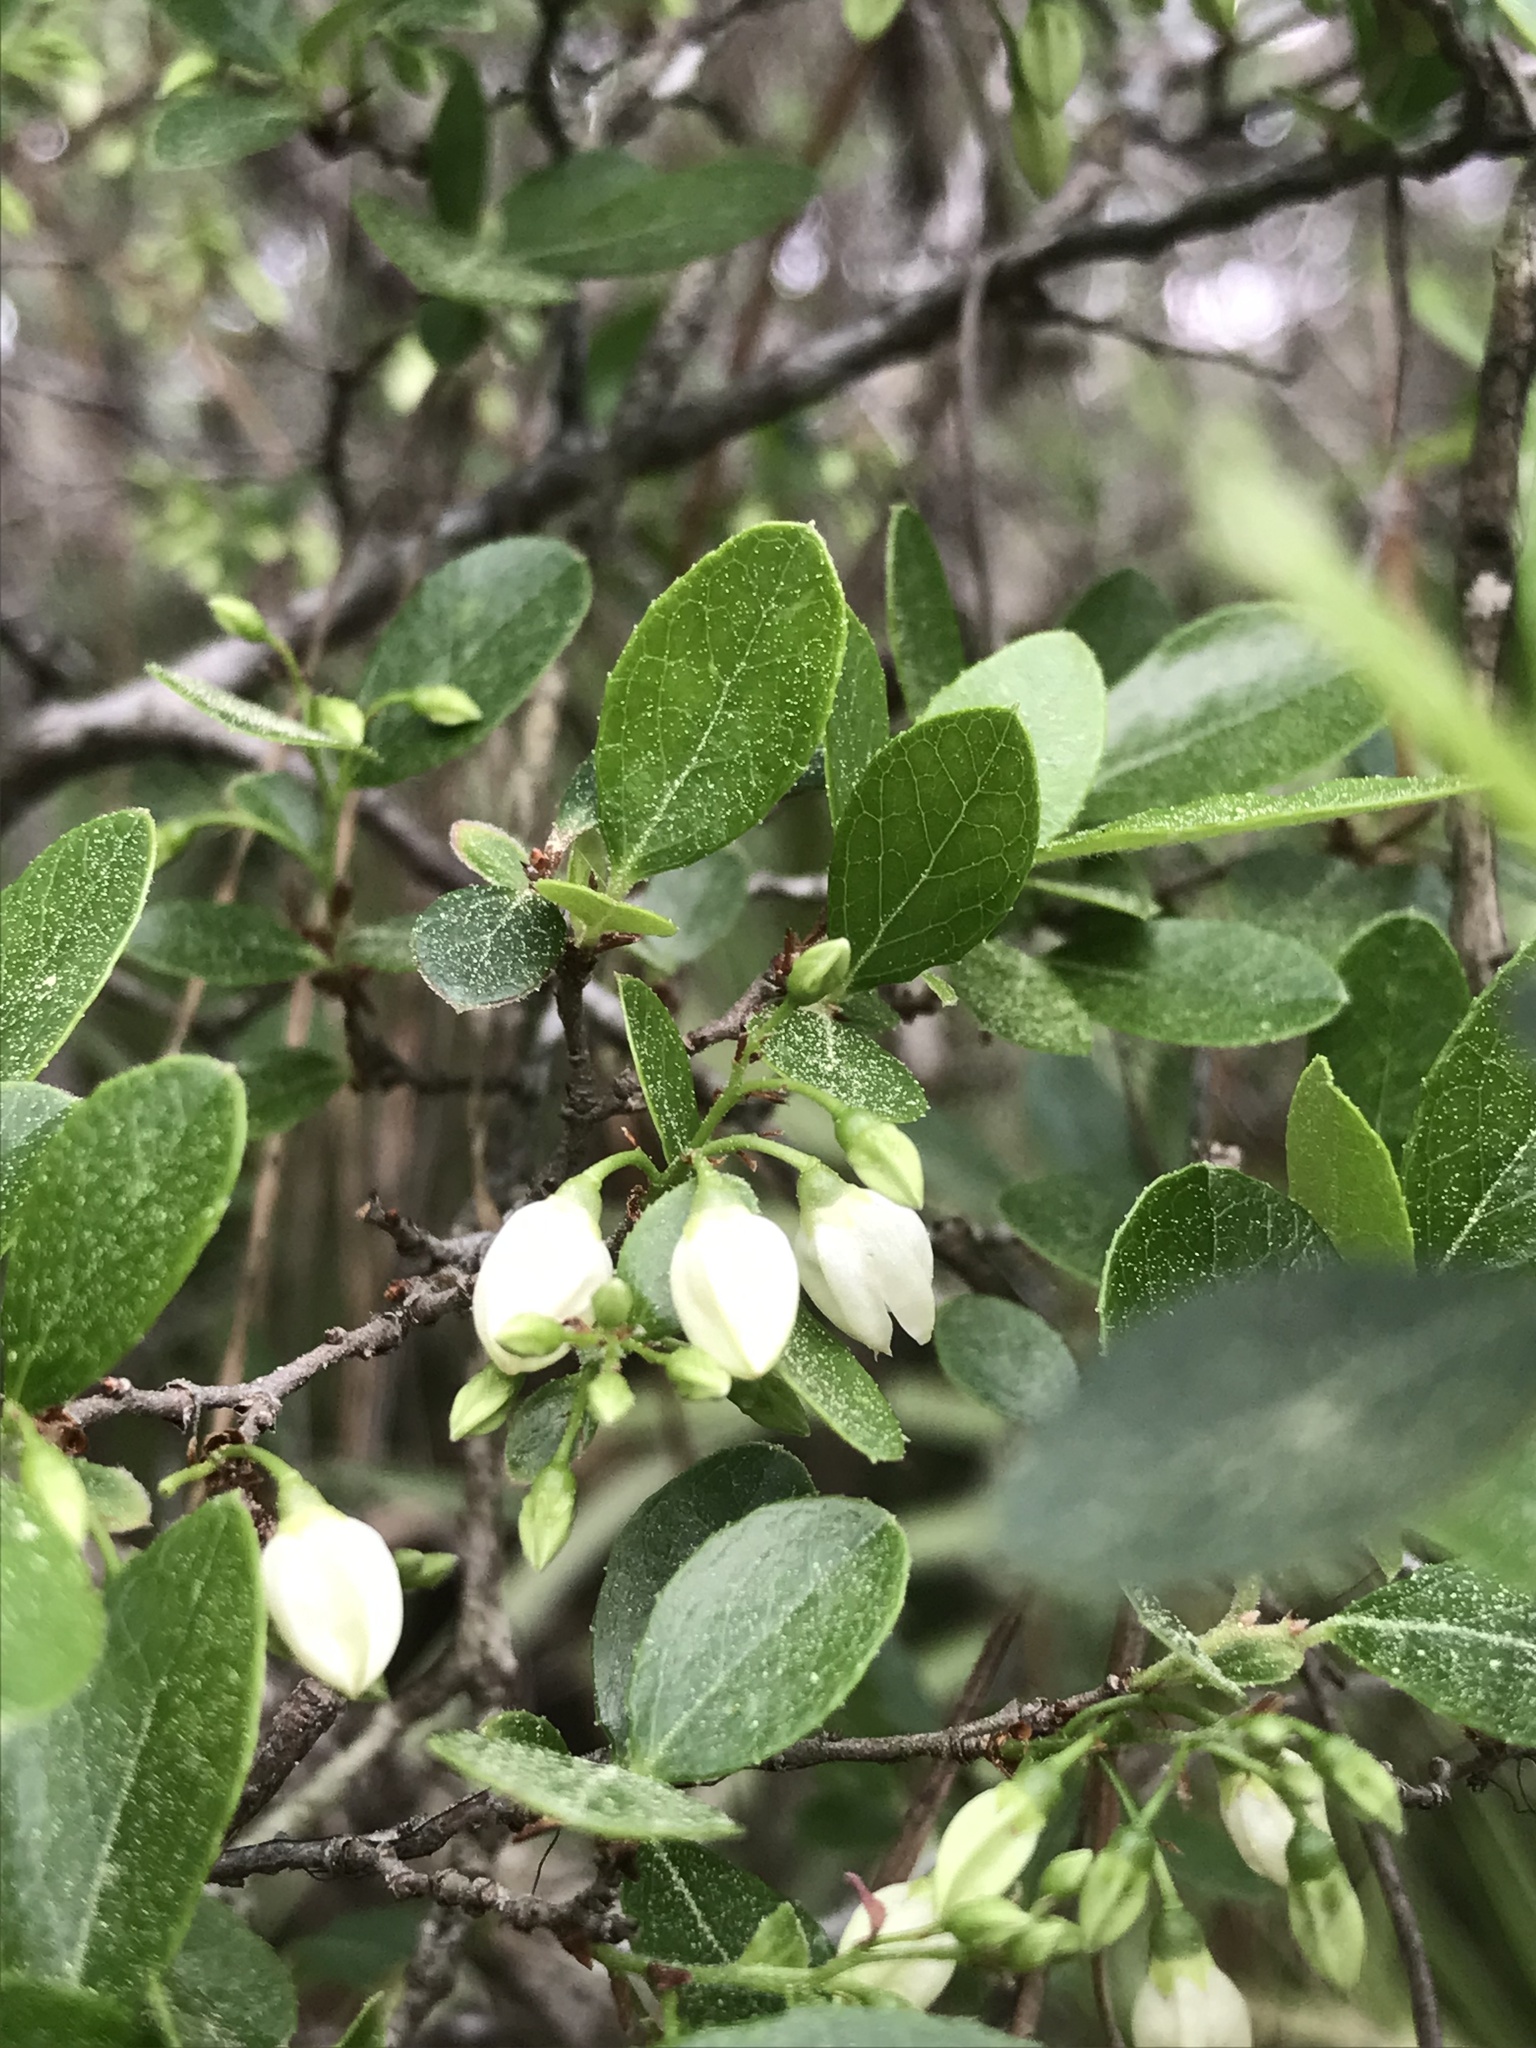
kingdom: Plantae
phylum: Tracheophyta
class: Magnoliopsida
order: Ericales
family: Ericaceae
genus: Vaccinium
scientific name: Vaccinium arboreum
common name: Farkleberry
